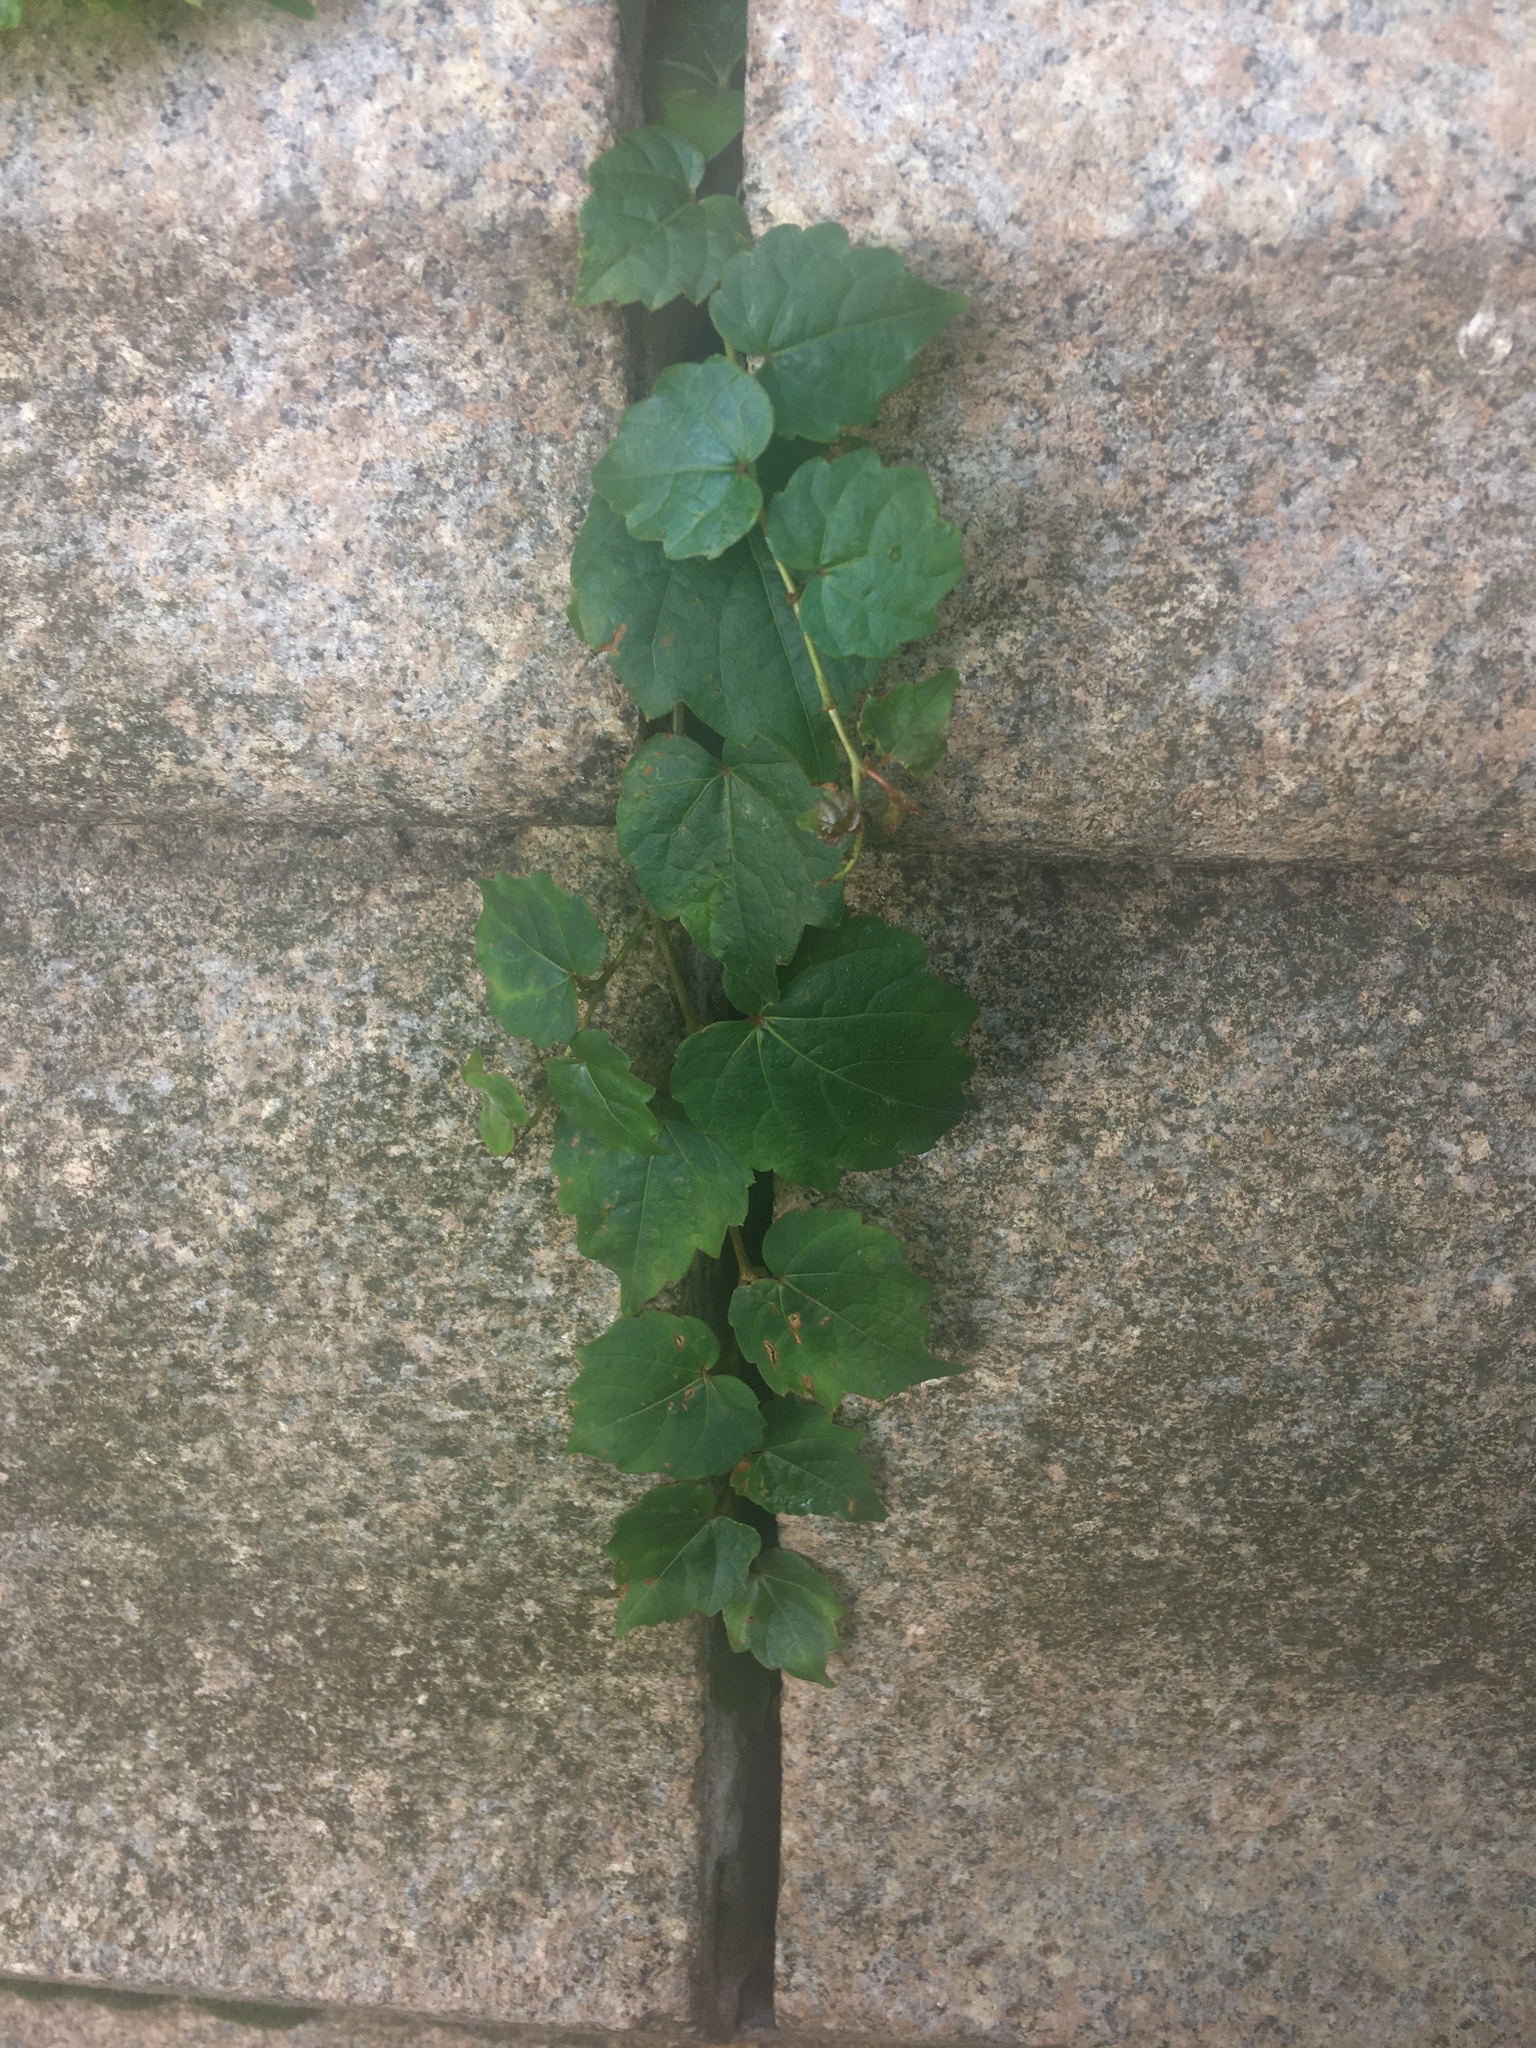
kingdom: Plantae
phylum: Tracheophyta
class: Magnoliopsida
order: Vitales
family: Vitaceae
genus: Parthenocissus
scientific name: Parthenocissus tricuspidata
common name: Boston ivy
